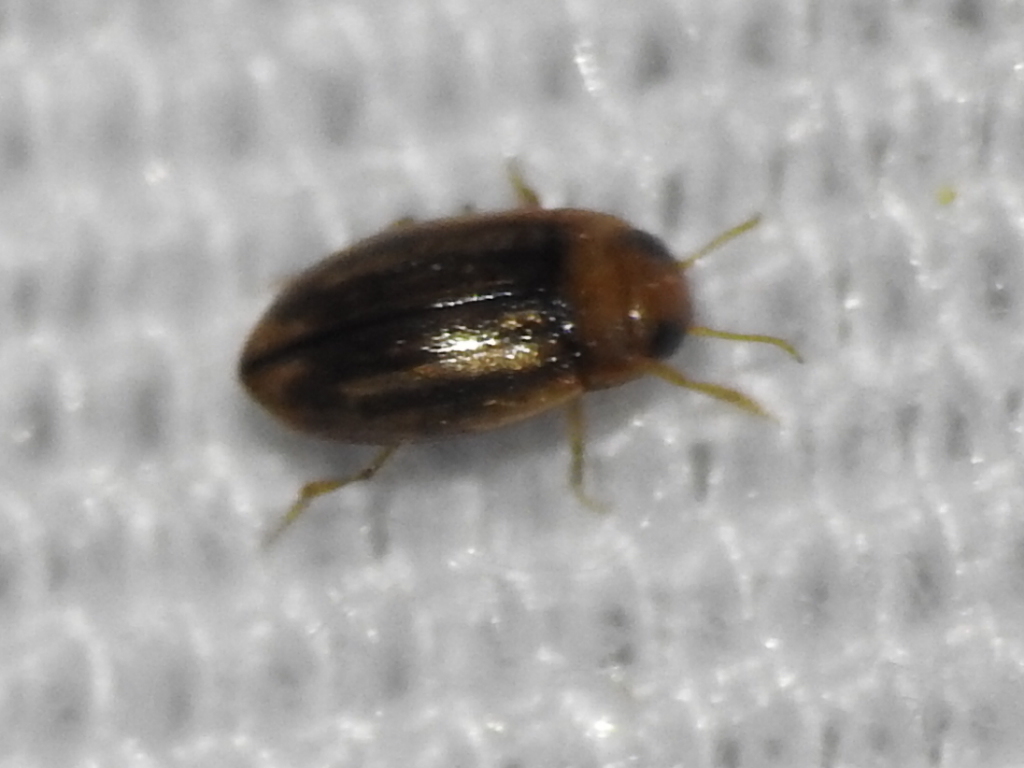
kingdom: Animalia
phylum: Arthropoda
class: Insecta
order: Coleoptera
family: Dytiscidae
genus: Neobidessus
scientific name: Neobidessus pullus
